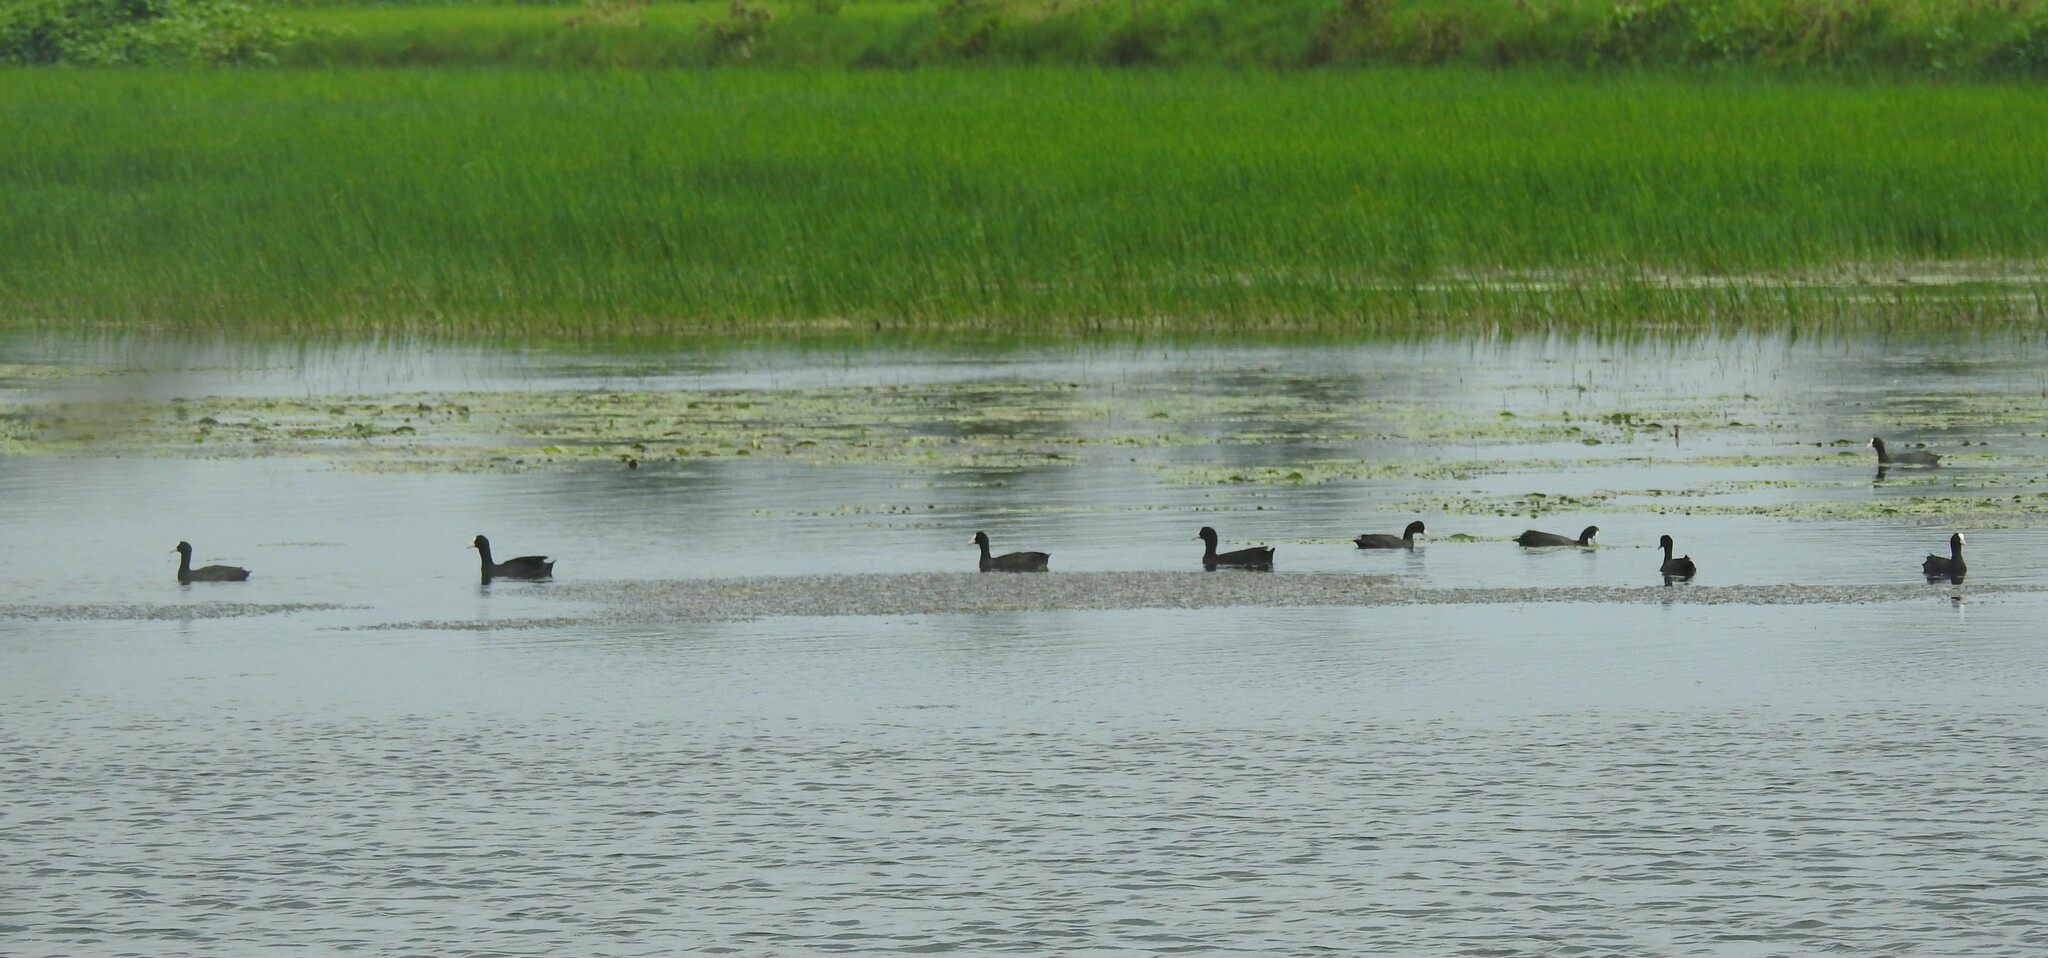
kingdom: Animalia
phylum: Chordata
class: Aves
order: Gruiformes
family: Rallidae
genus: Fulica
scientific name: Fulica atra
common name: Eurasian coot
